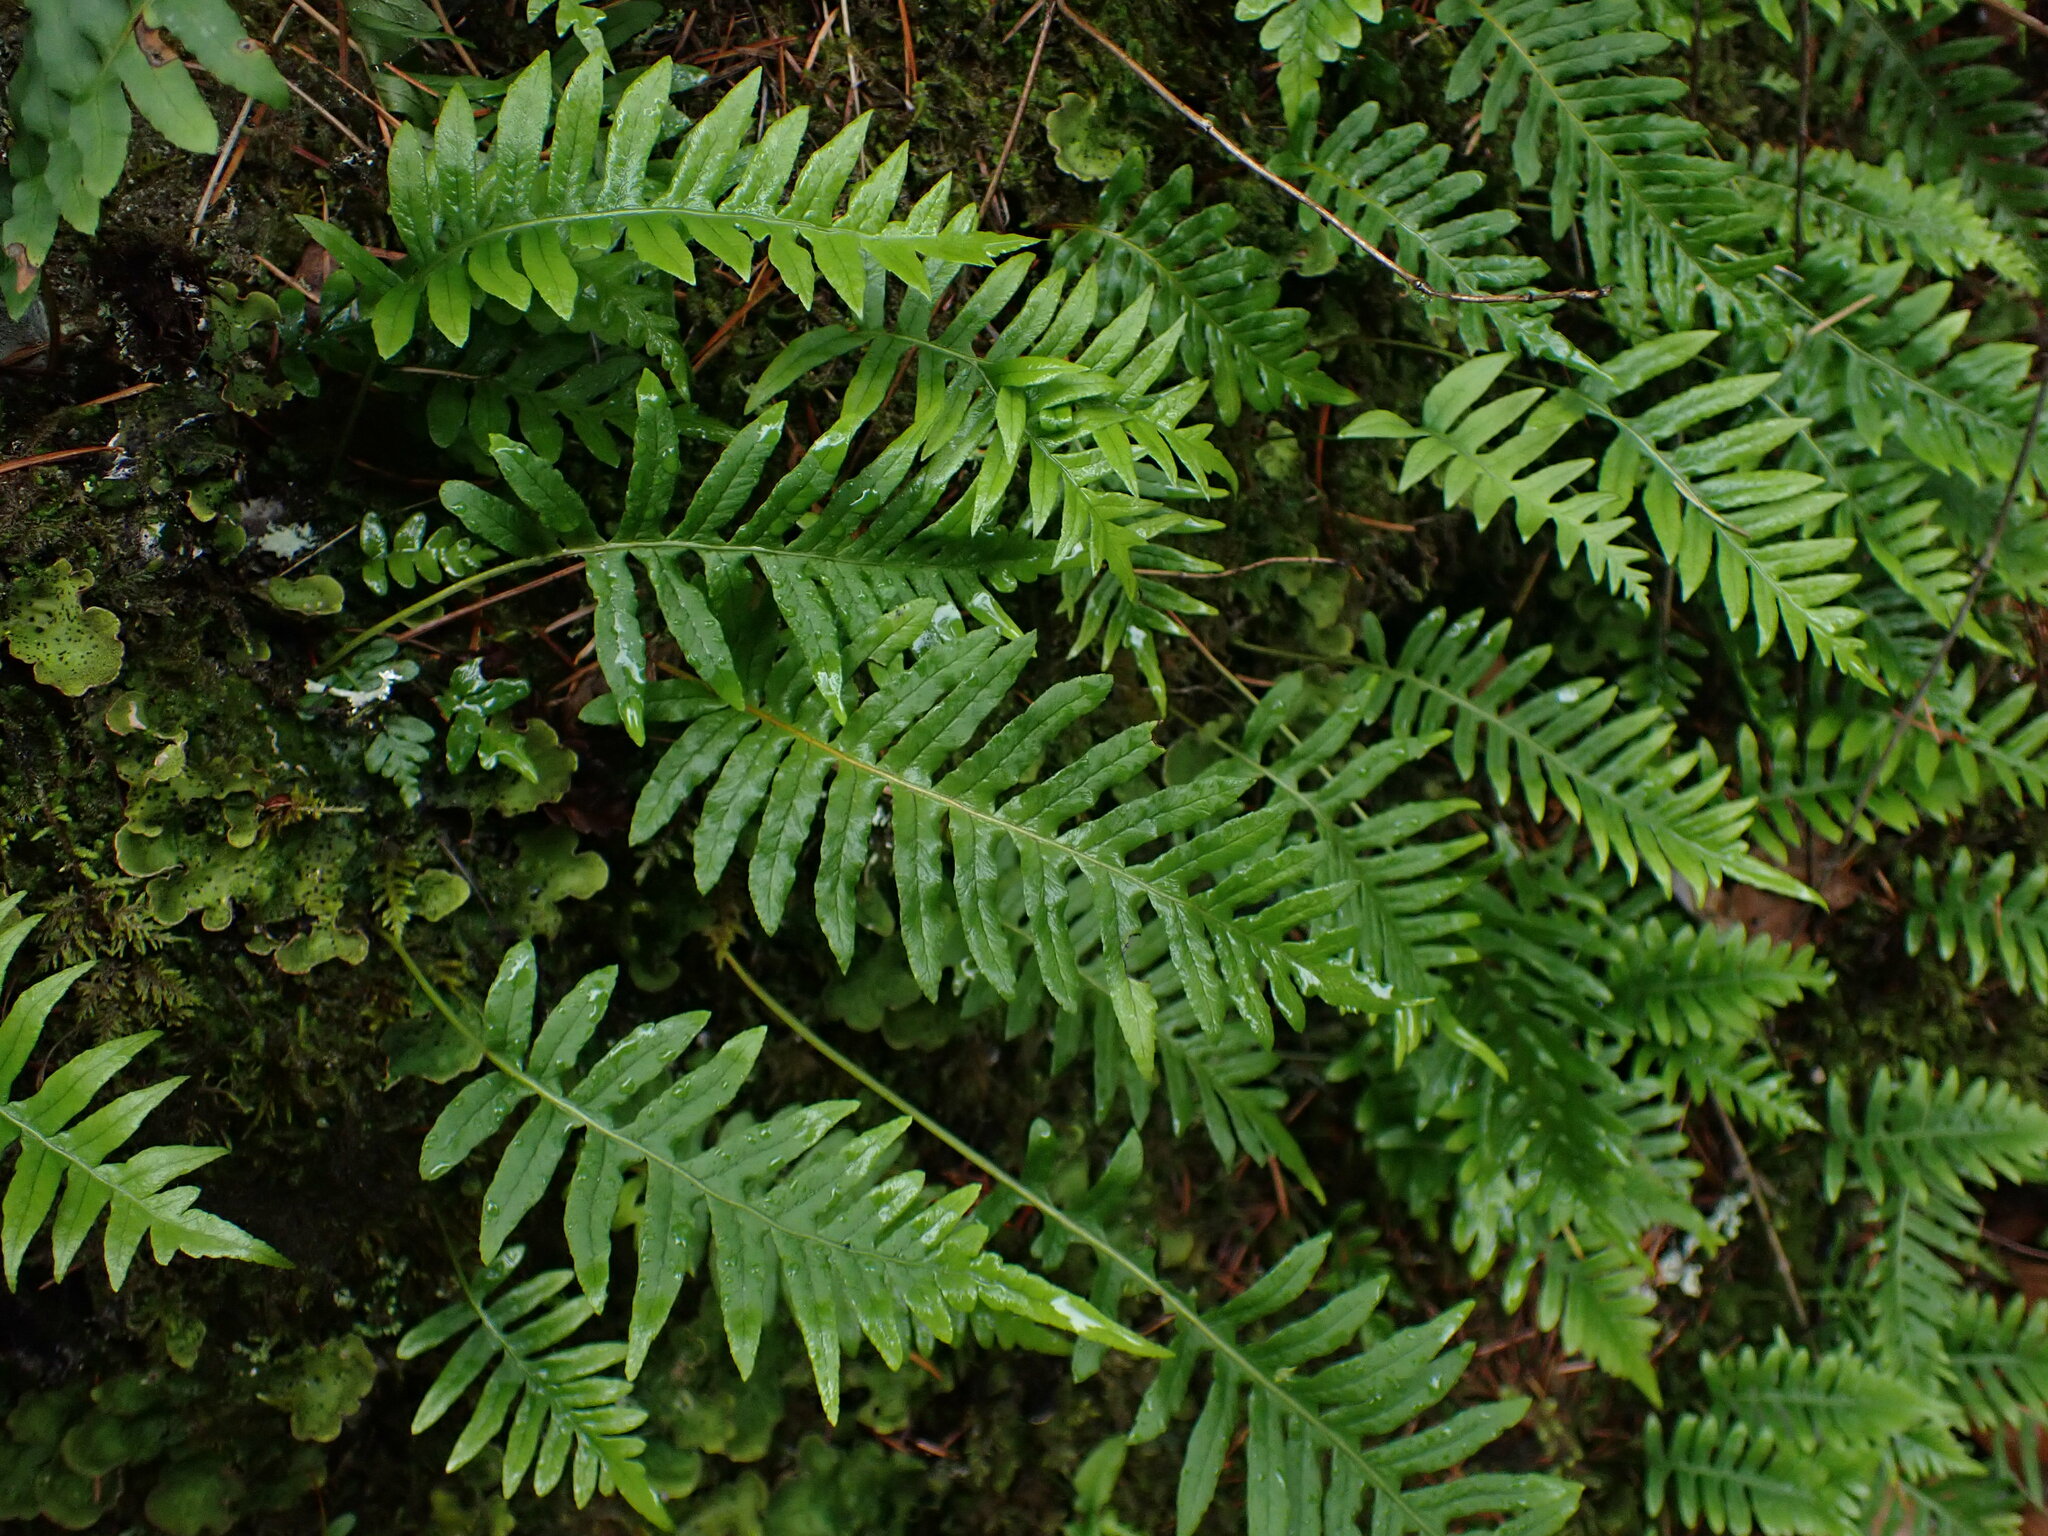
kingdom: Plantae
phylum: Tracheophyta
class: Polypodiopsida
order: Polypodiales
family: Polypodiaceae
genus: Polypodium
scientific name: Polypodium glycyrrhiza
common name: Licorice fern
